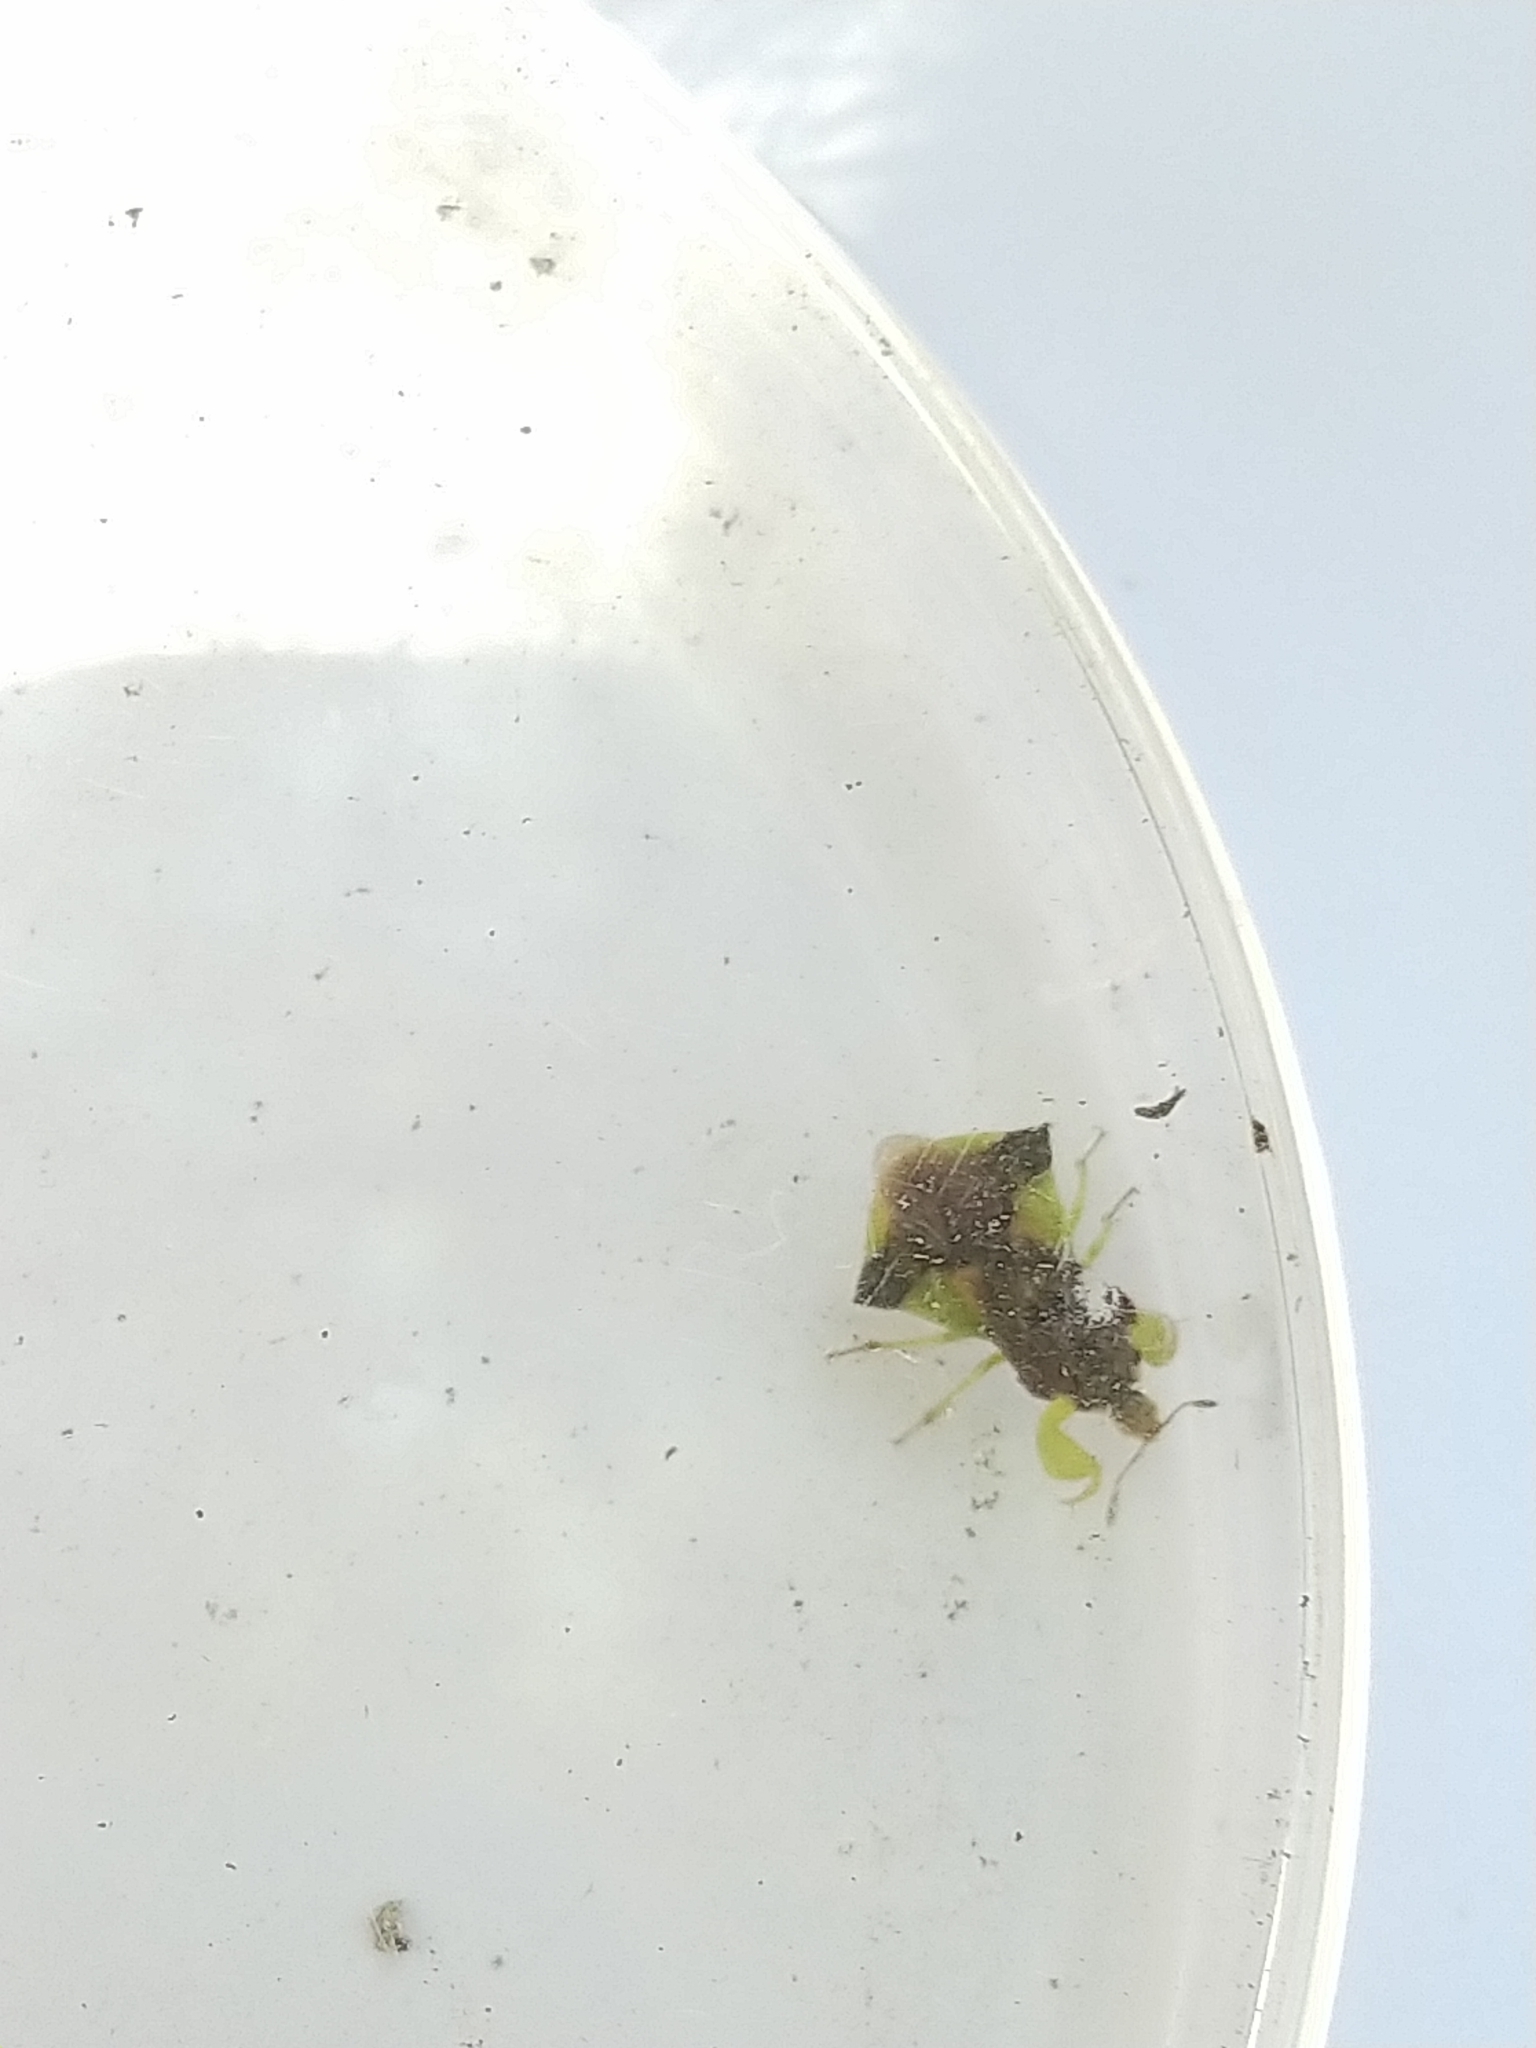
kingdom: Animalia
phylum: Arthropoda
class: Insecta
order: Hemiptera
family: Reduviidae
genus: Phymata
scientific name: Phymata pennsylvanica
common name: Pennsylvania ambush bug
